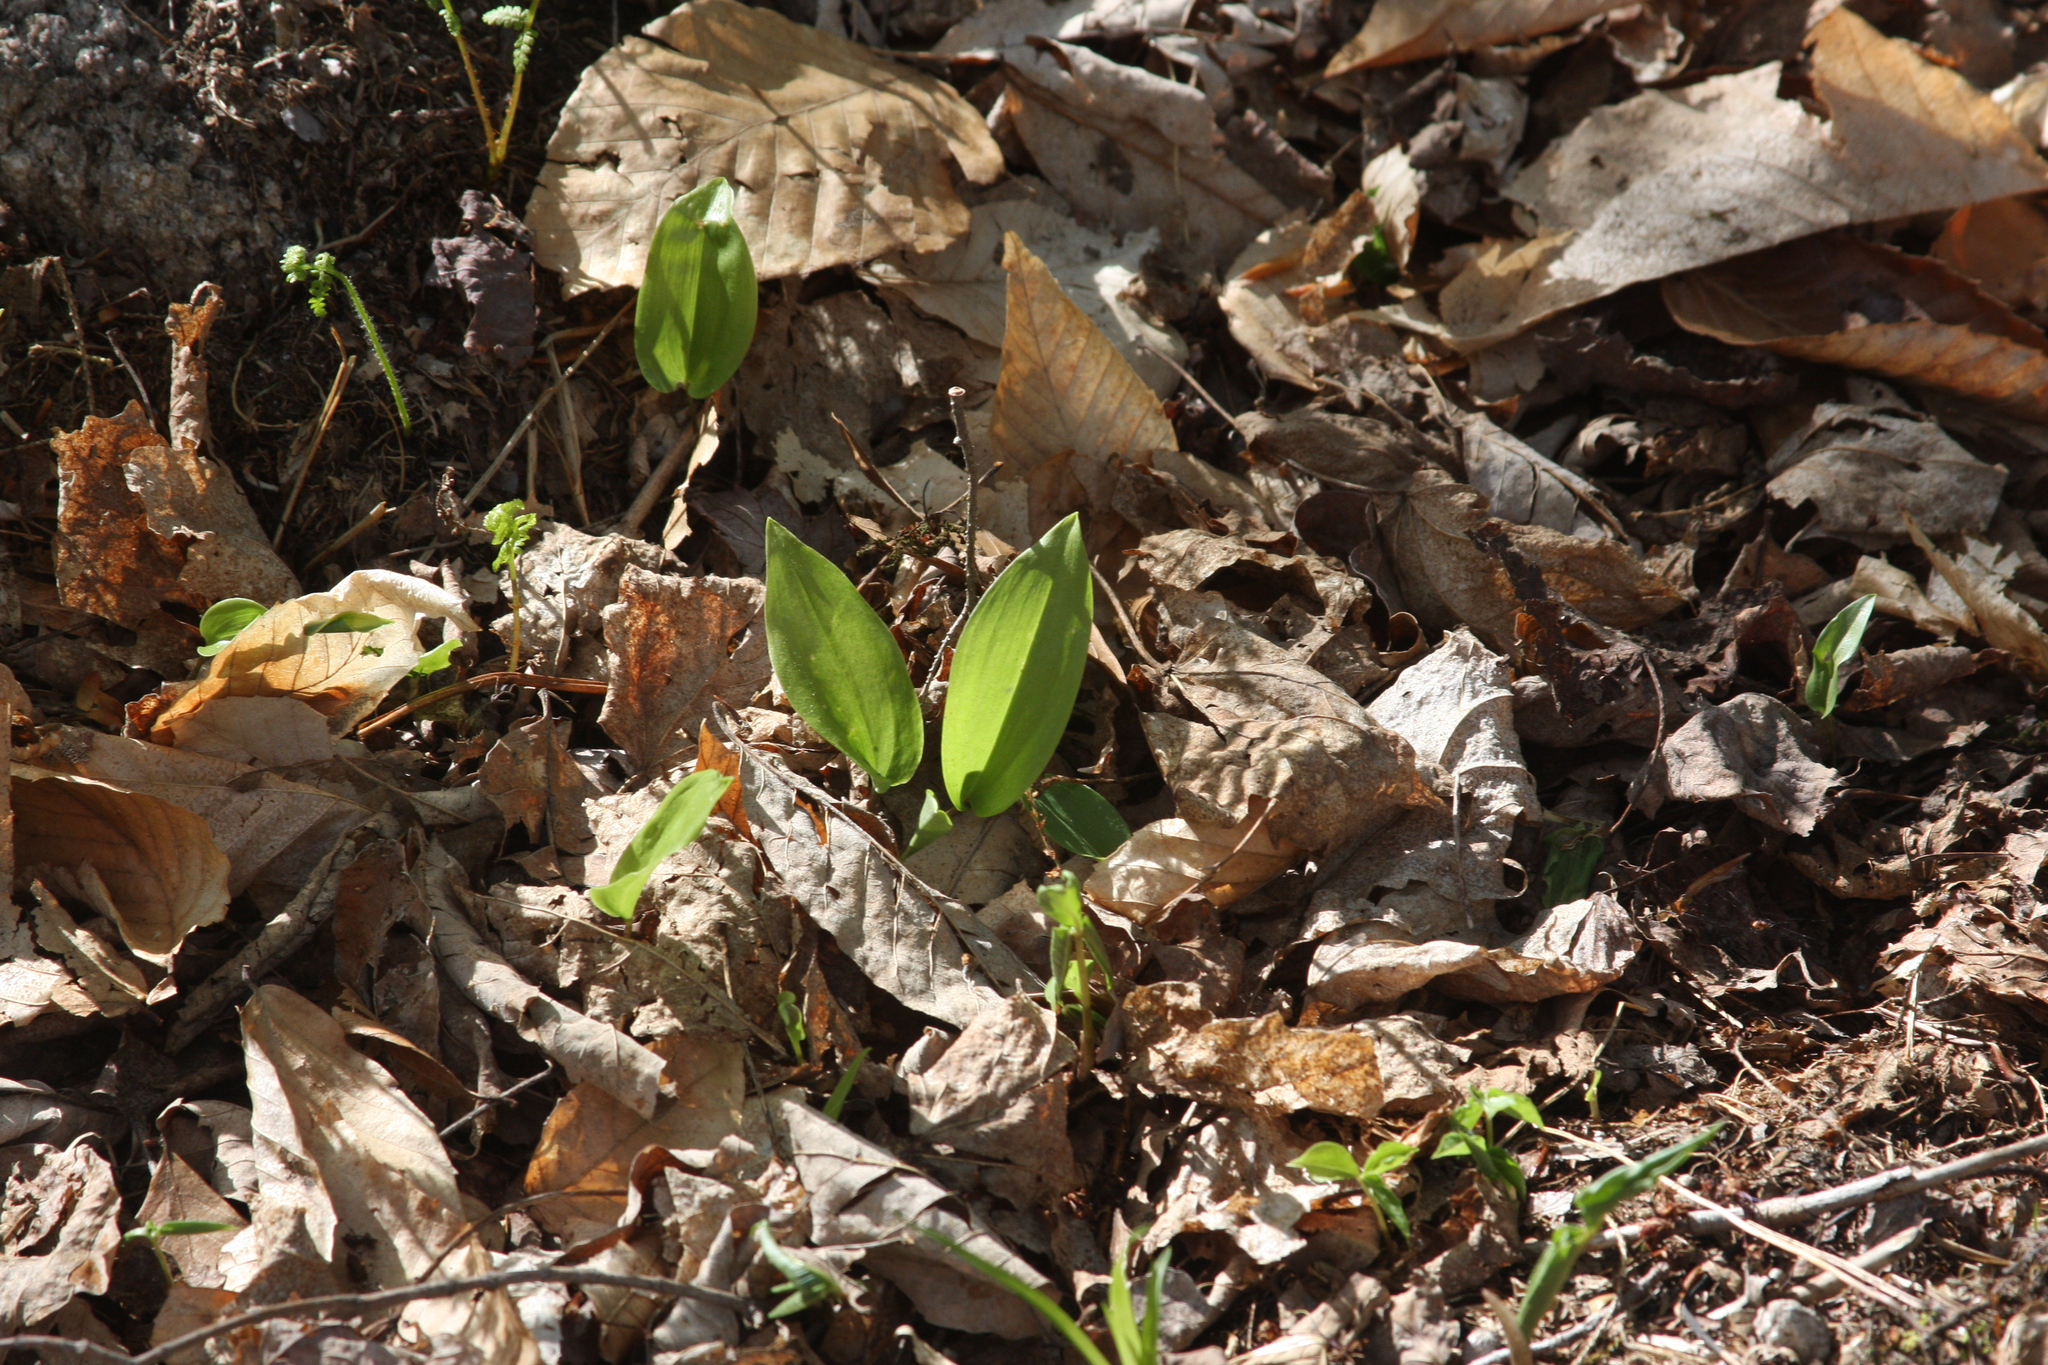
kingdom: Plantae
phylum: Tracheophyta
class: Liliopsida
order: Asparagales
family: Asparagaceae
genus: Maianthemum
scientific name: Maianthemum canadense
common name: False lily-of-the-valley
